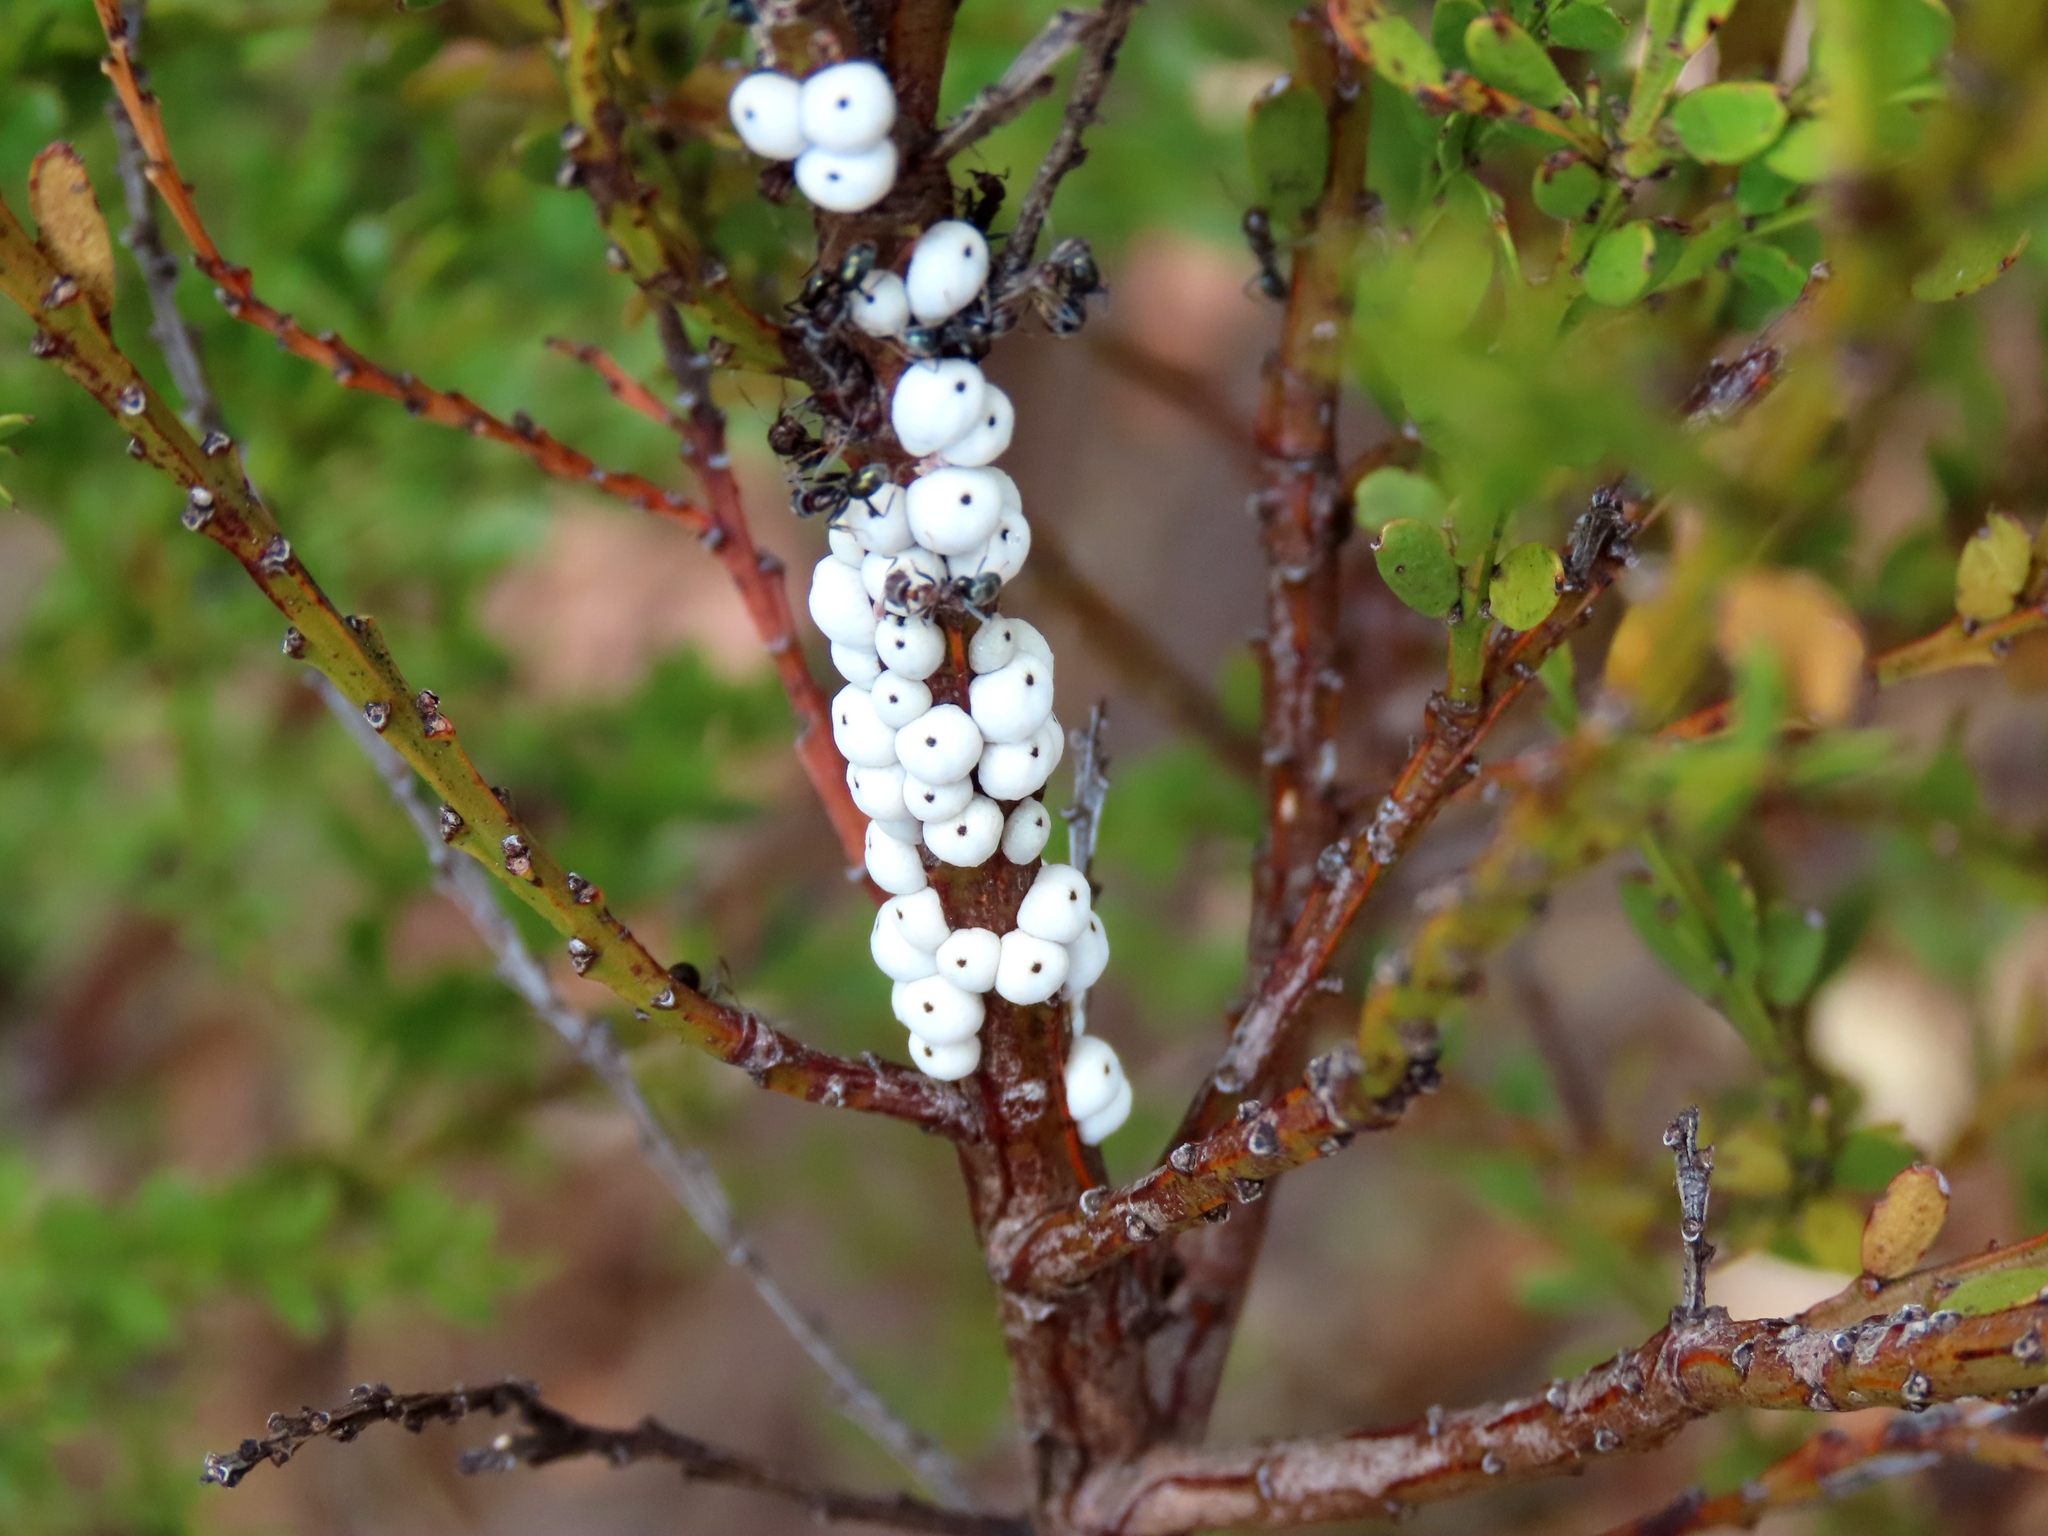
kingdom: Animalia
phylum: Arthropoda
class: Insecta
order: Hemiptera
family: Coccidae
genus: Cryptes
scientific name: Cryptes baccatus
